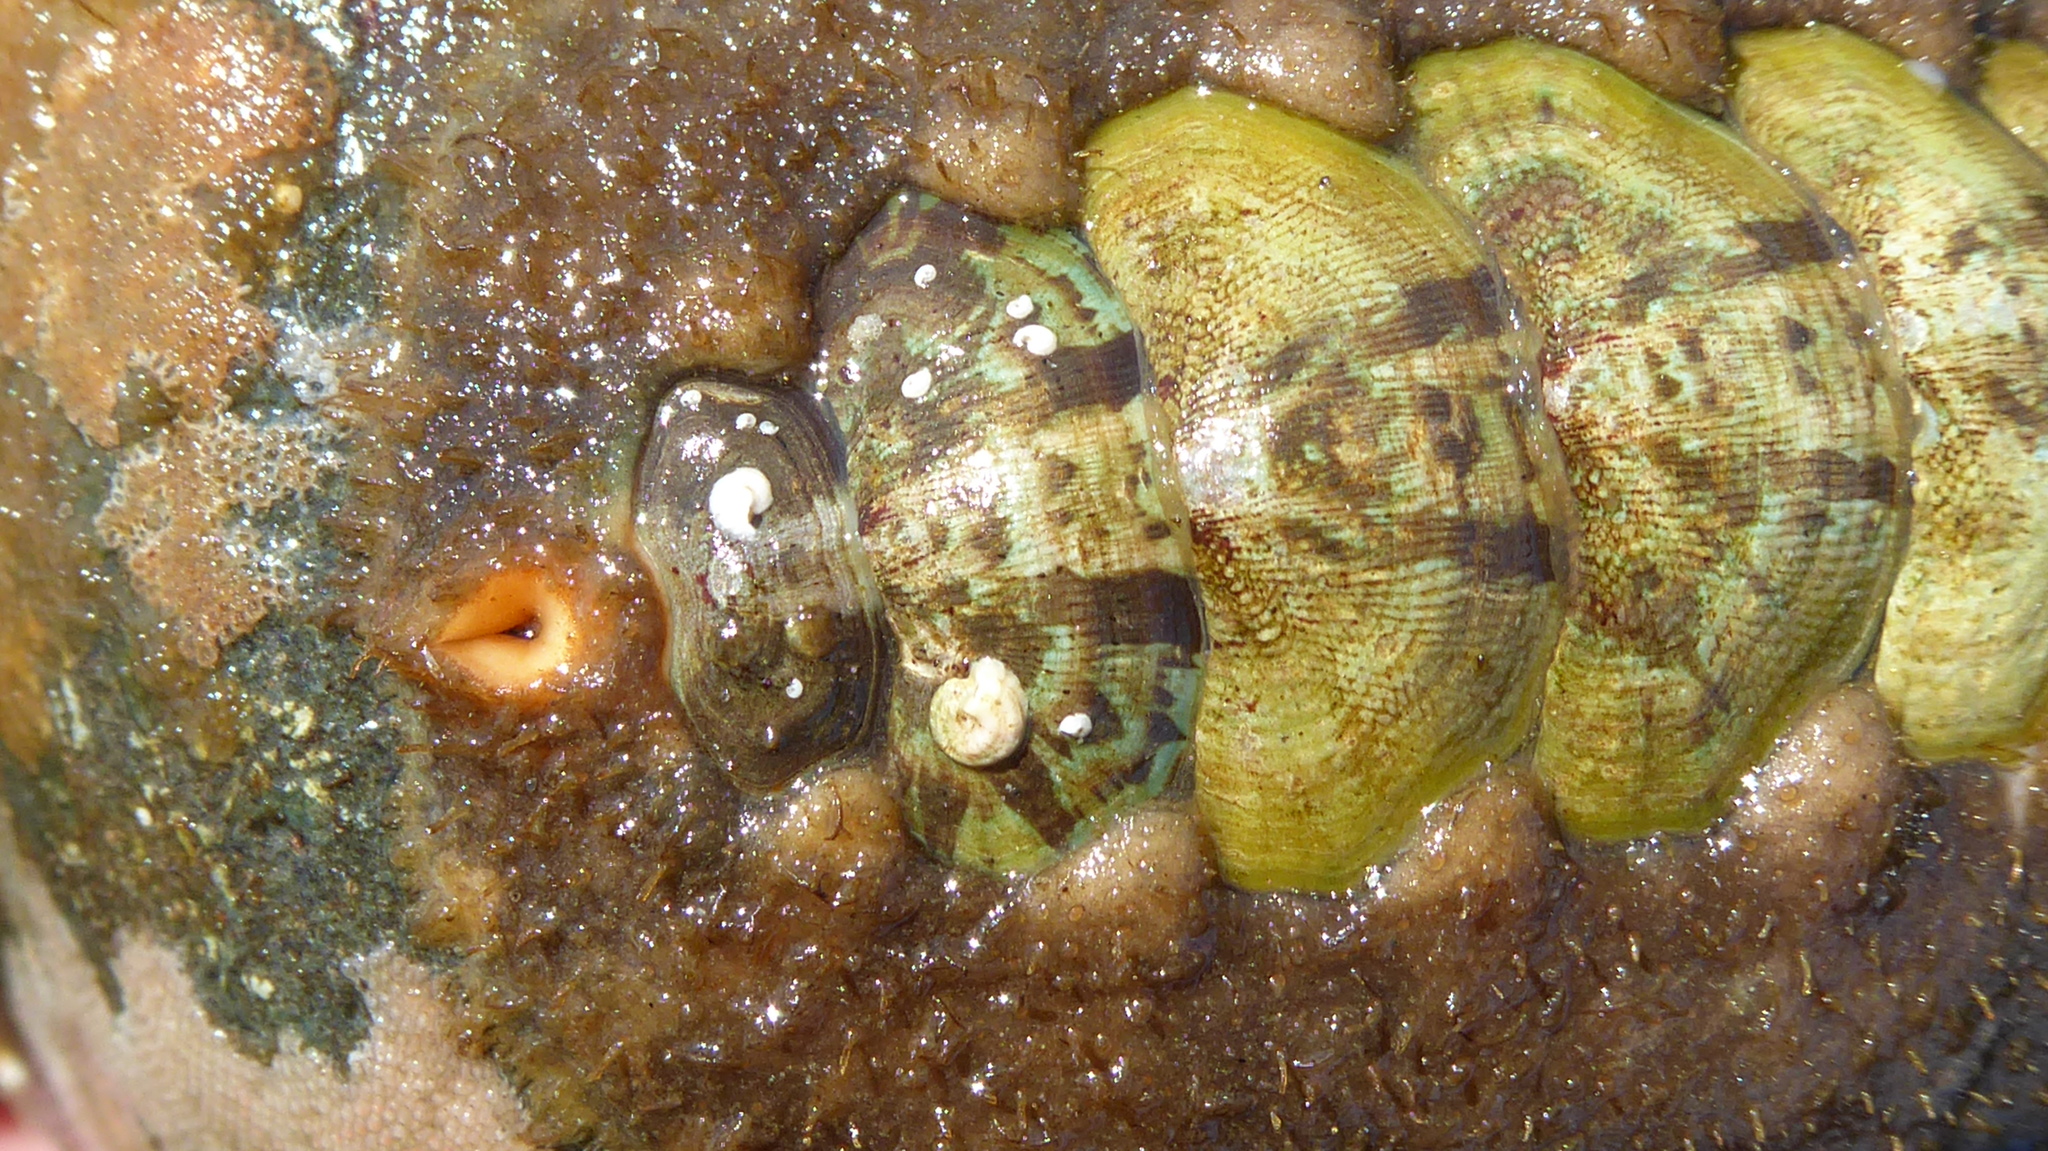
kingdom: Animalia
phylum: Mollusca
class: Polyplacophora
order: Chitonida
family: Mopaliidae
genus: Mopalia
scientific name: Mopalia ciliata
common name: Hairy chiton
